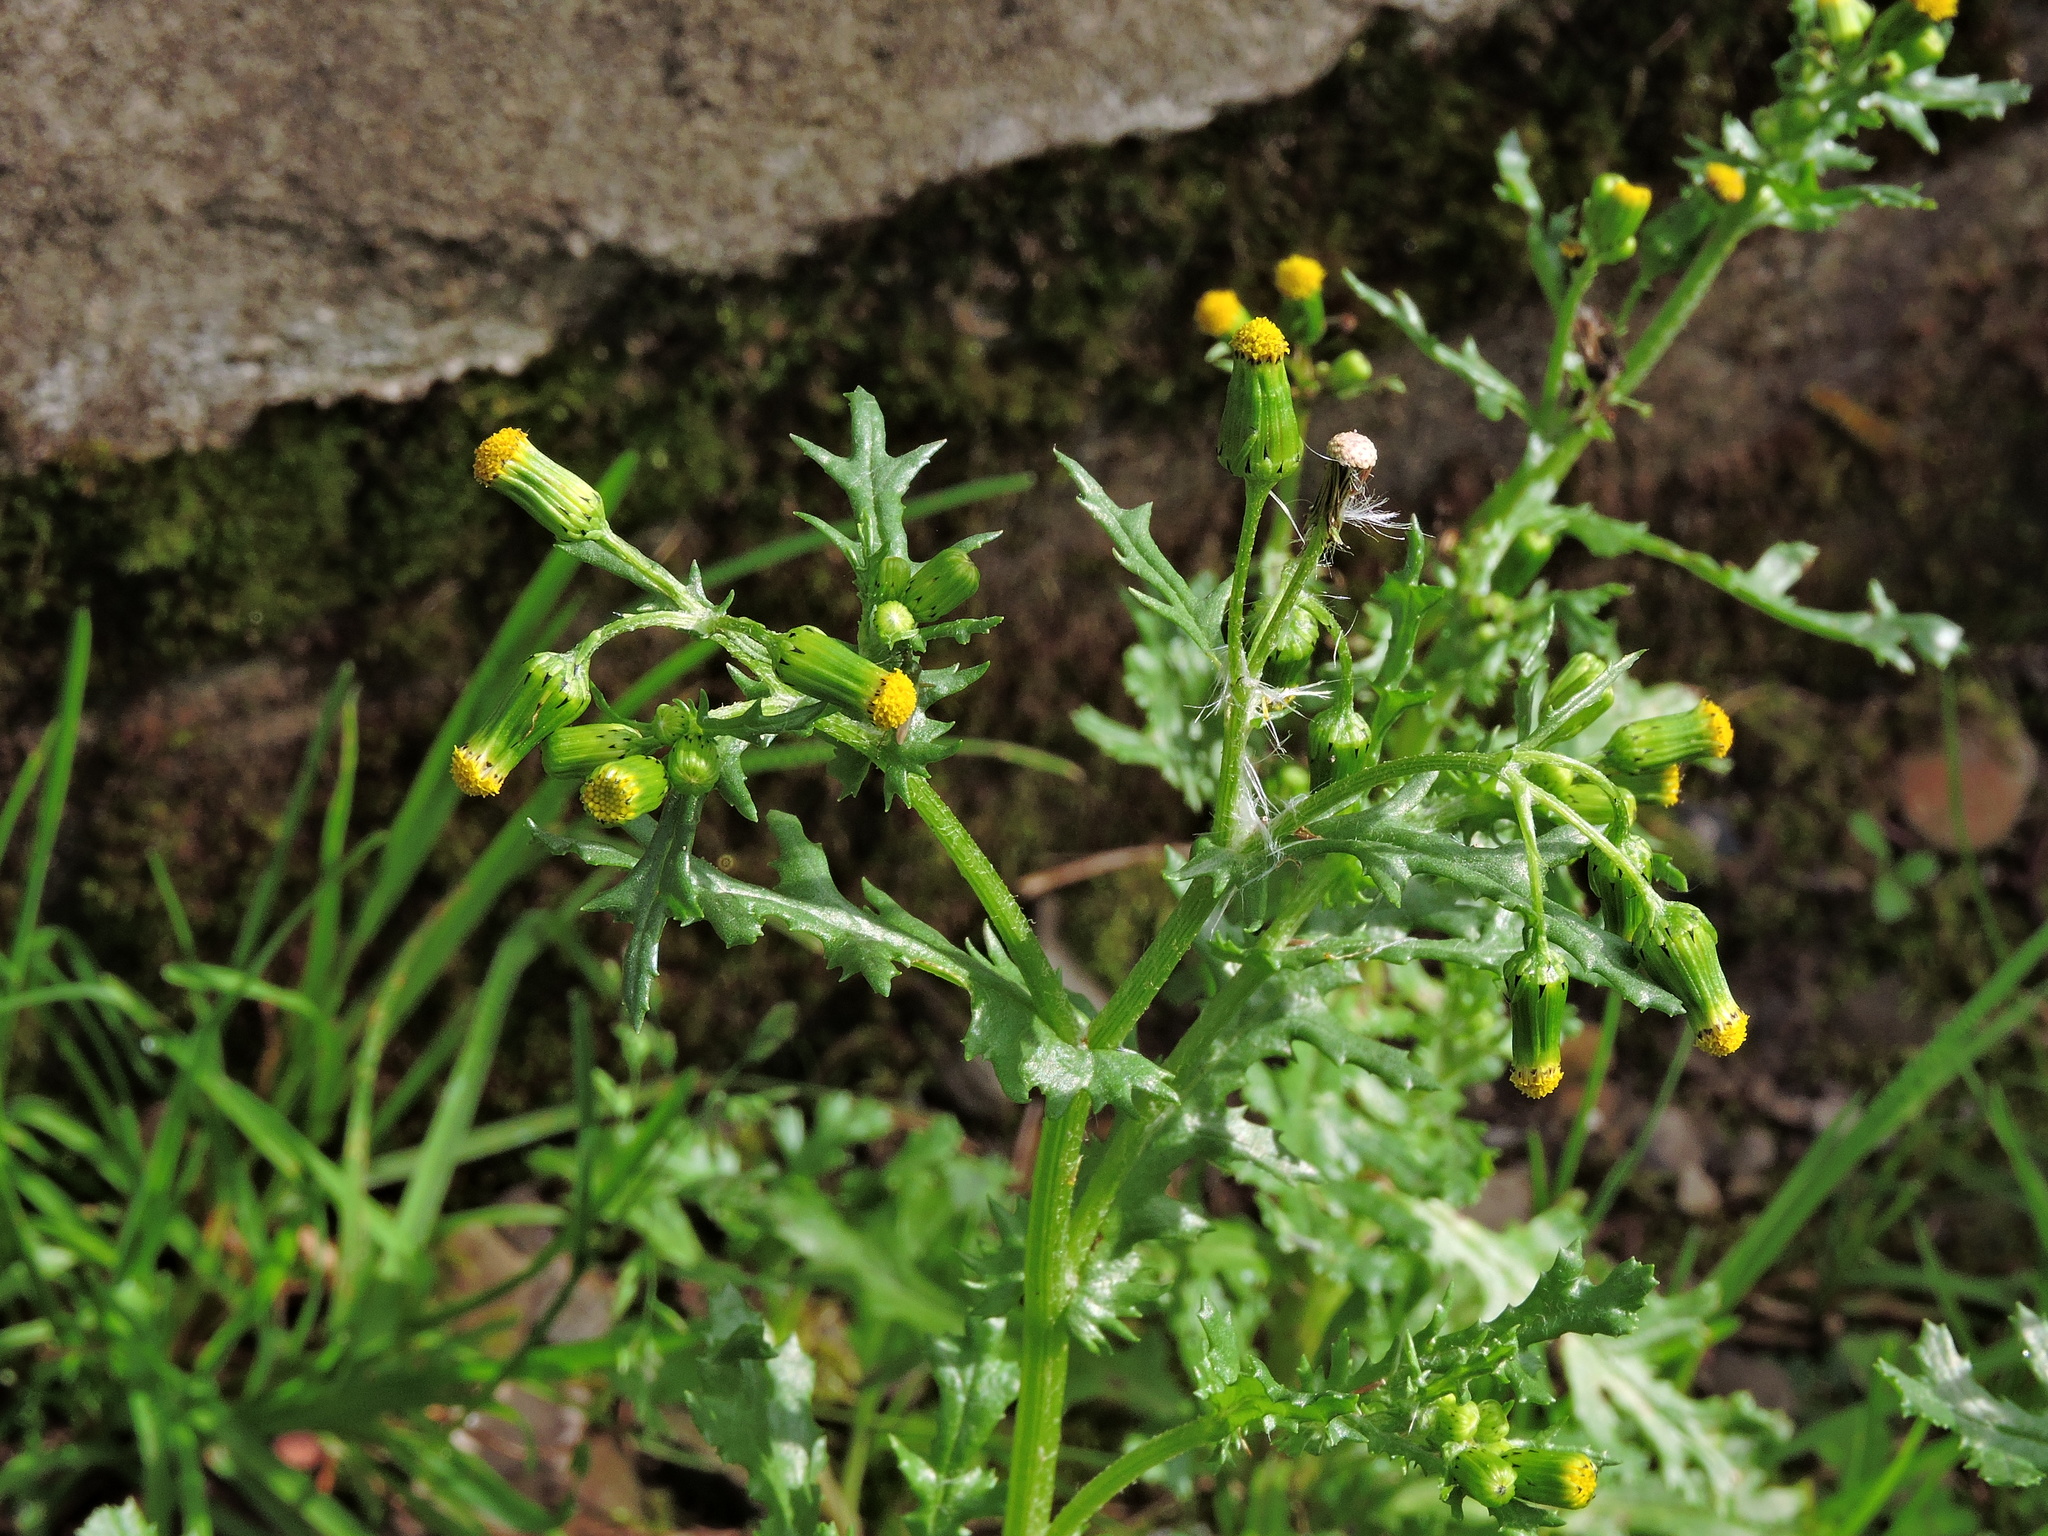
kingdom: Plantae
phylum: Tracheophyta
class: Magnoliopsida
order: Asterales
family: Asteraceae
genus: Senecio
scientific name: Senecio vulgaris
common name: Old-man-in-the-spring
